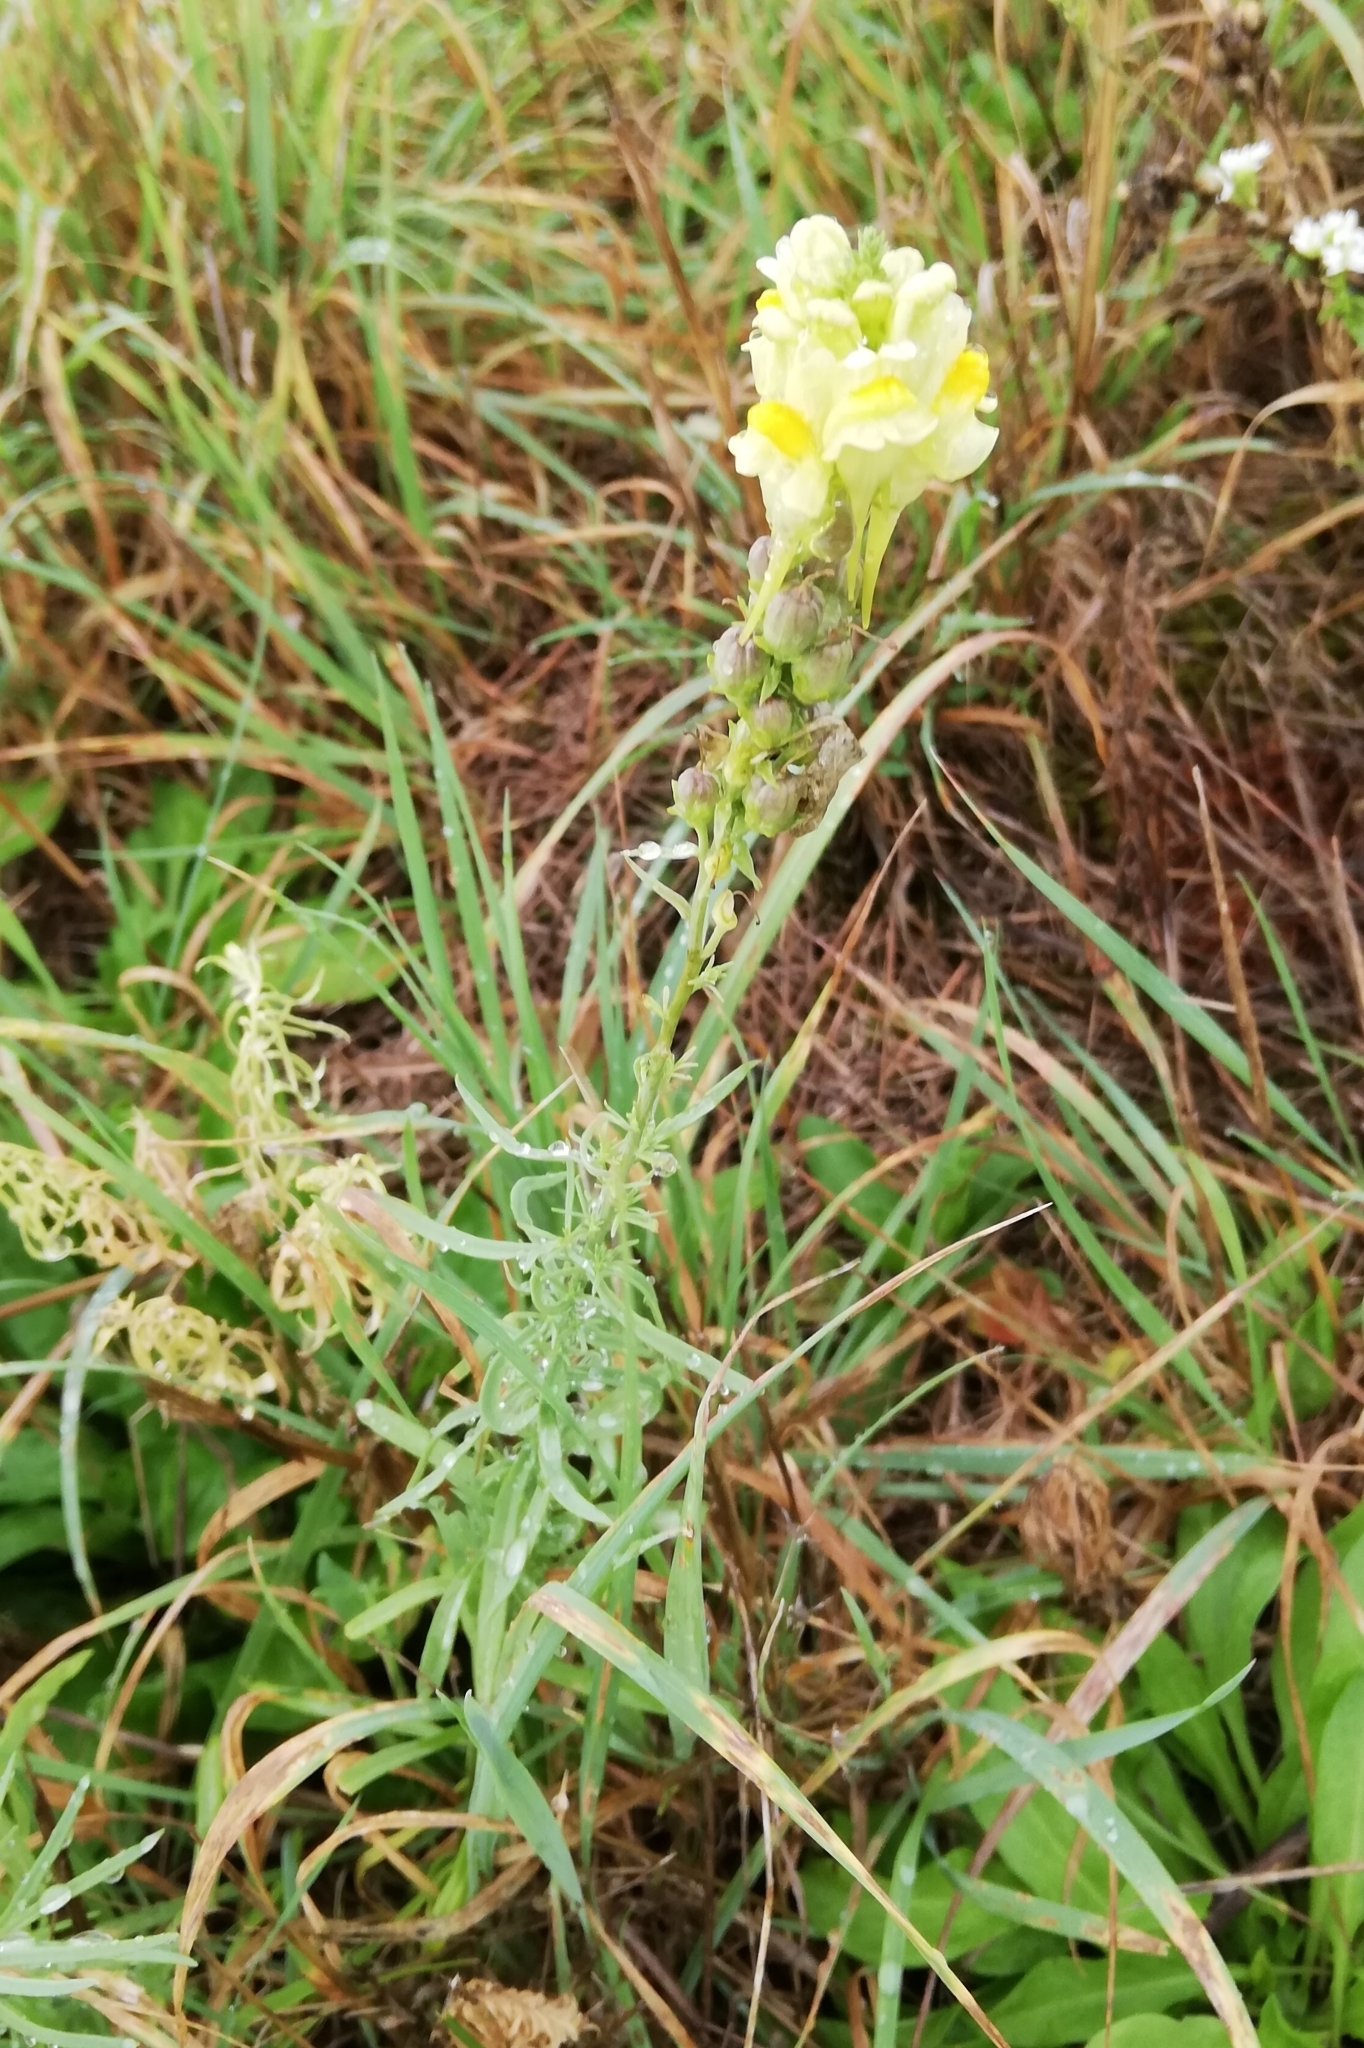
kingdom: Plantae
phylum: Tracheophyta
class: Magnoliopsida
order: Lamiales
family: Plantaginaceae
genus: Linaria
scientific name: Linaria vulgaris
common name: Butter and eggs
